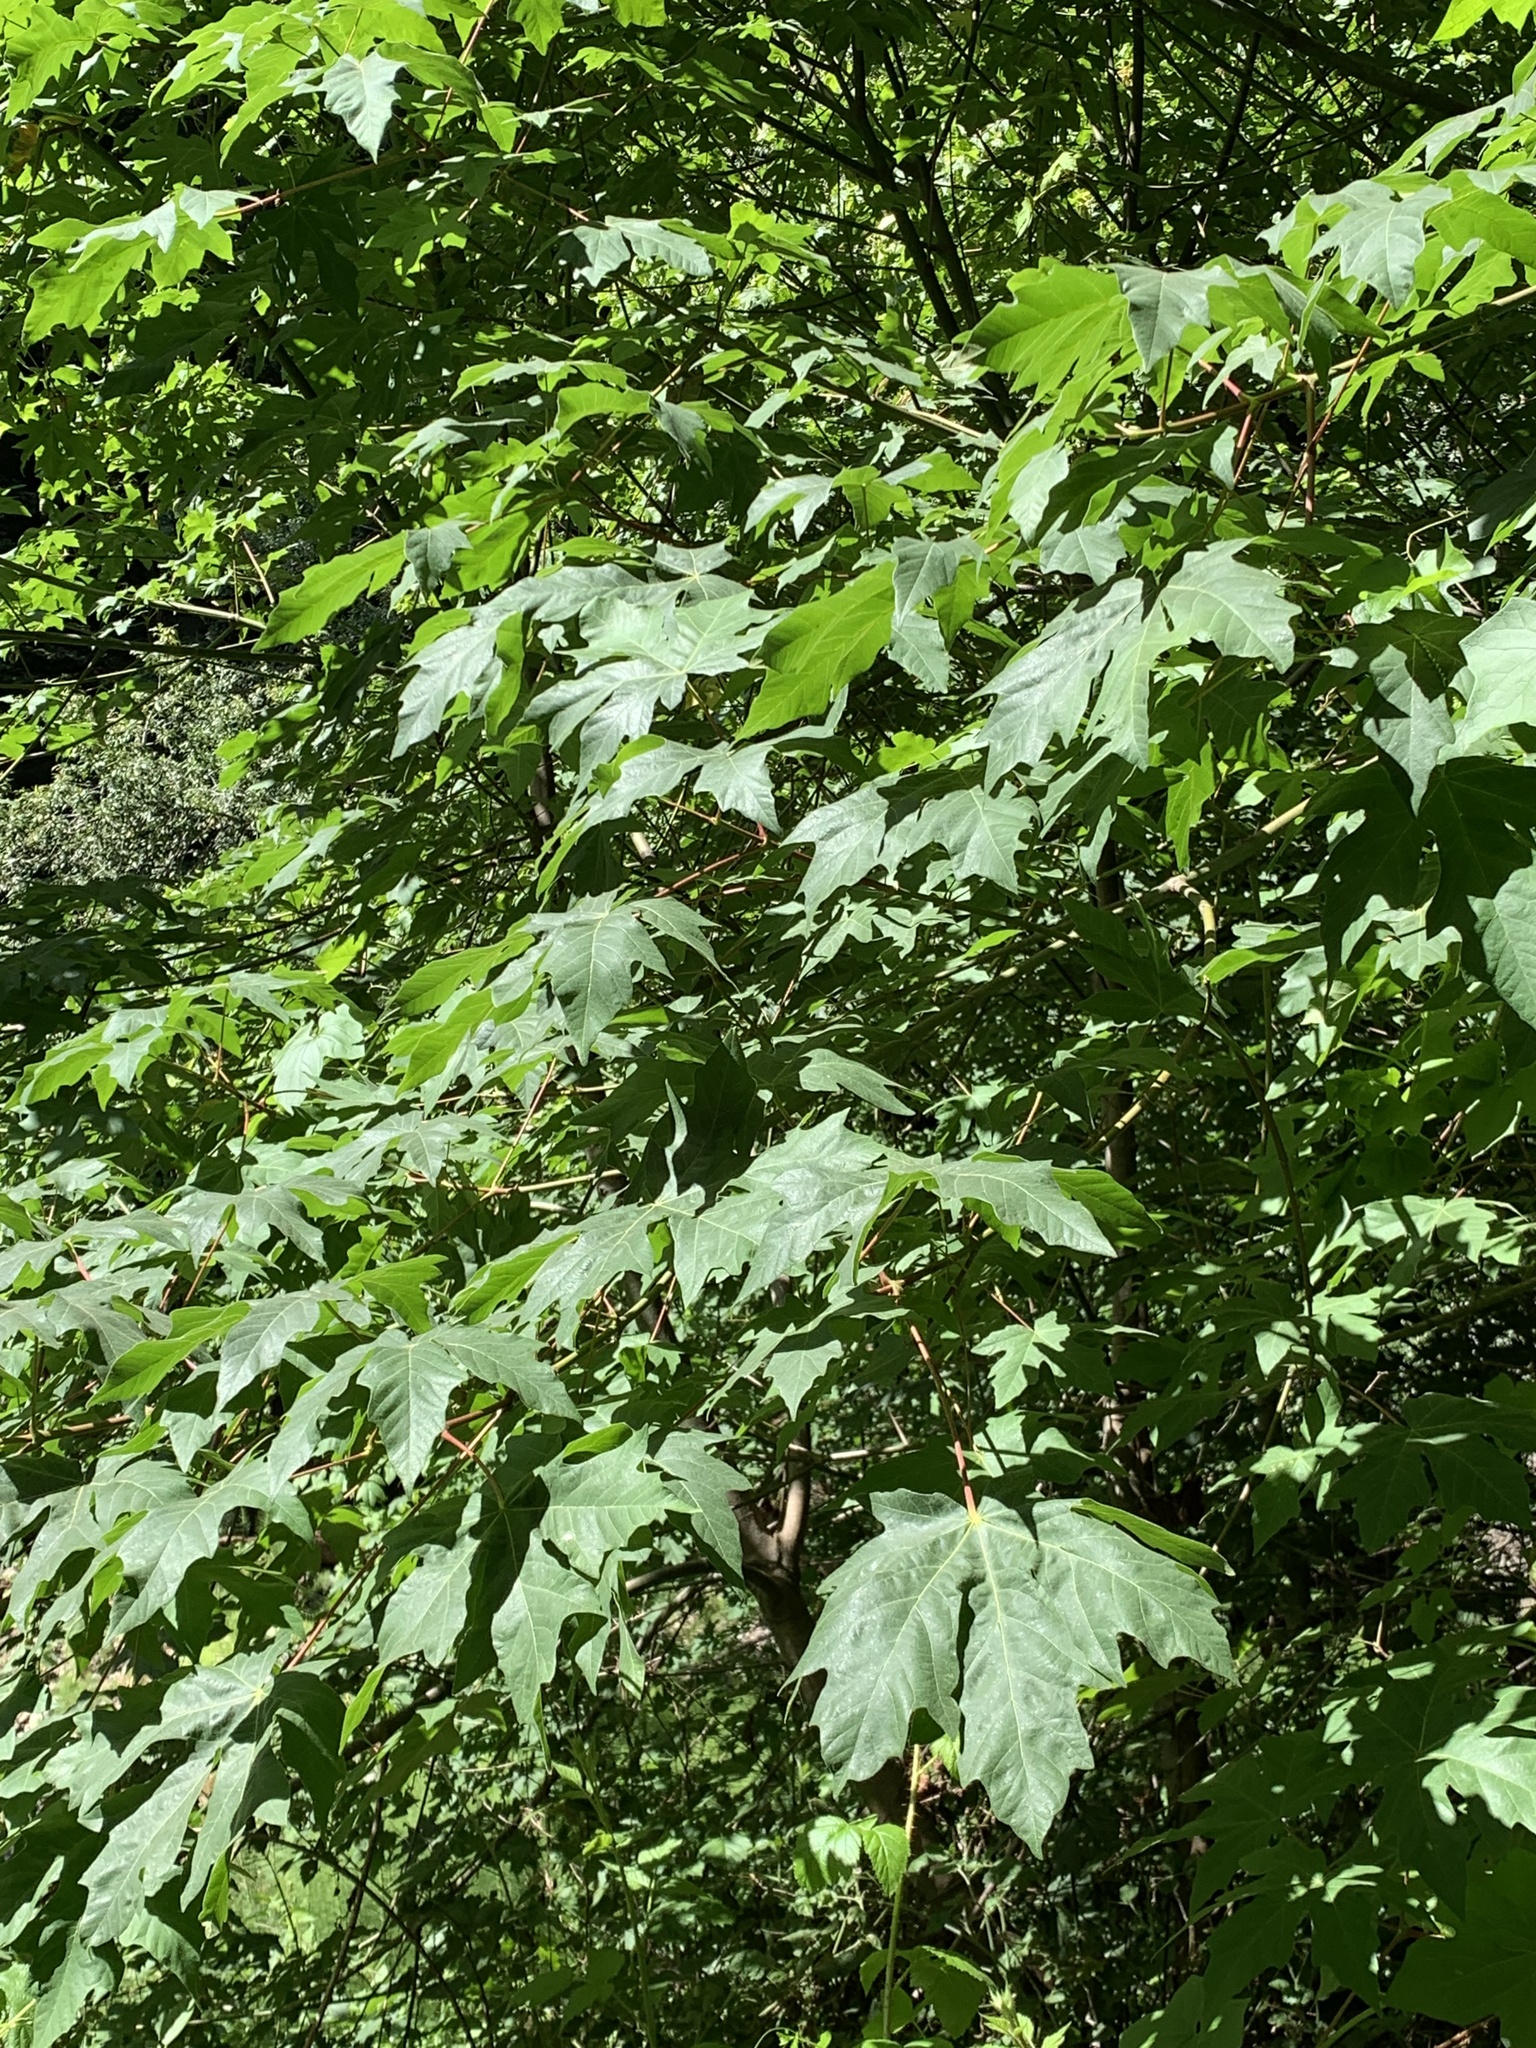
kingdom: Plantae
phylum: Tracheophyta
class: Magnoliopsida
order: Sapindales
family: Sapindaceae
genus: Acer
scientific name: Acer macrophyllum
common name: Oregon maple
